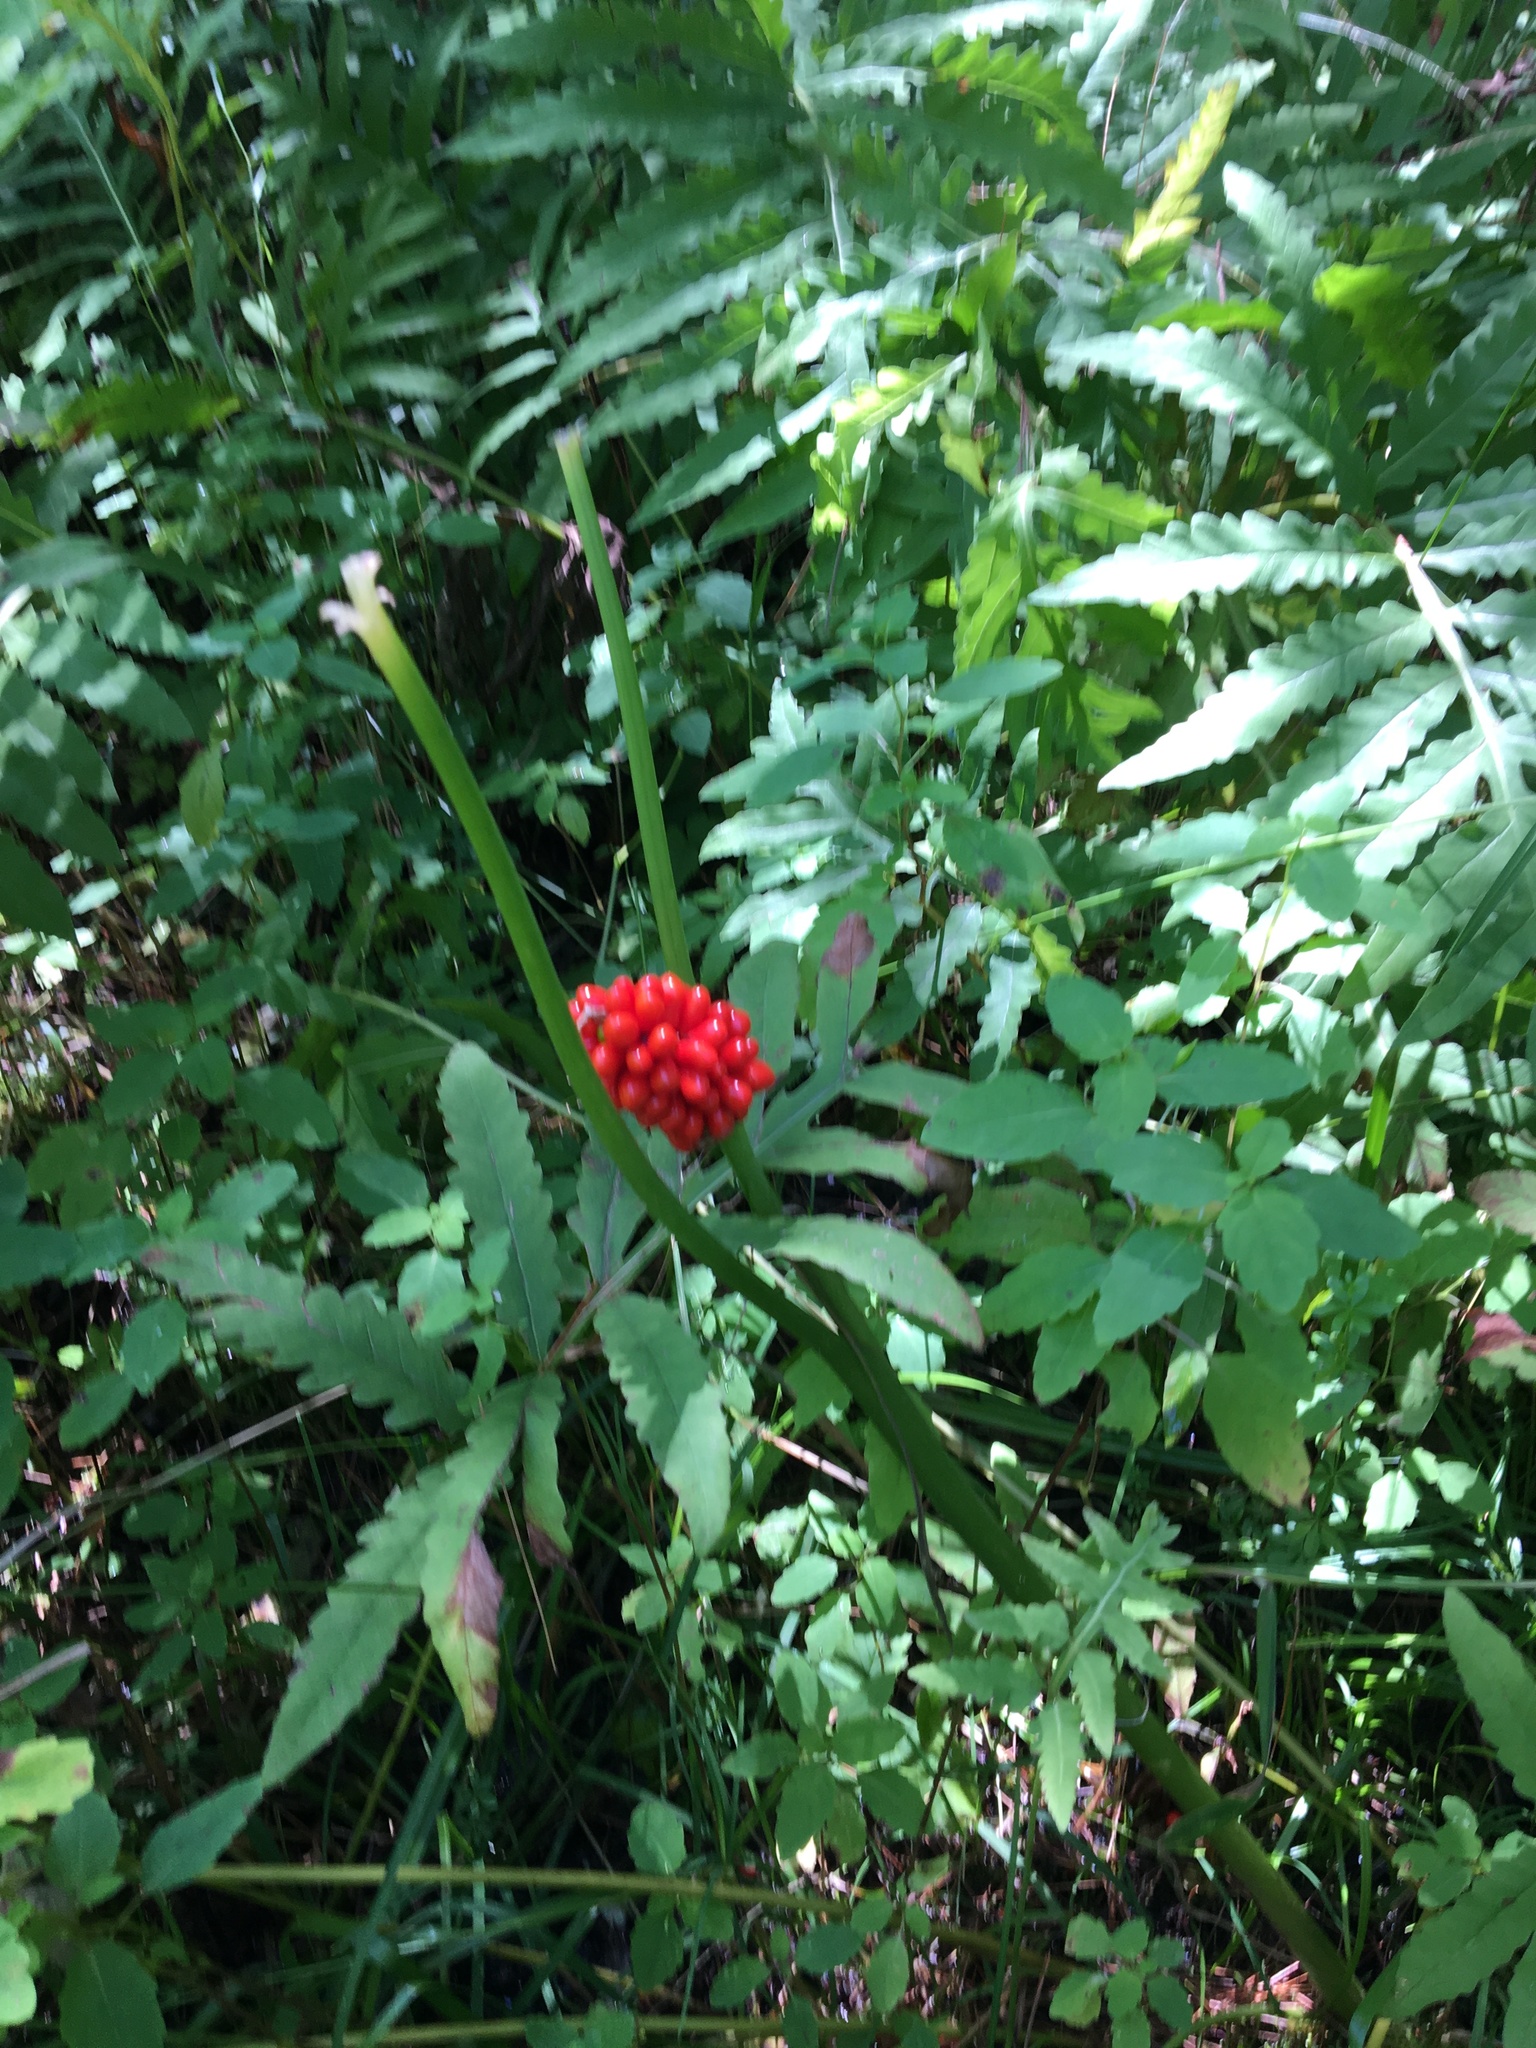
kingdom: Plantae
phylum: Tracheophyta
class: Liliopsida
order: Alismatales
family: Araceae
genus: Arisaema
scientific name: Arisaema triphyllum
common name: Jack-in-the-pulpit
